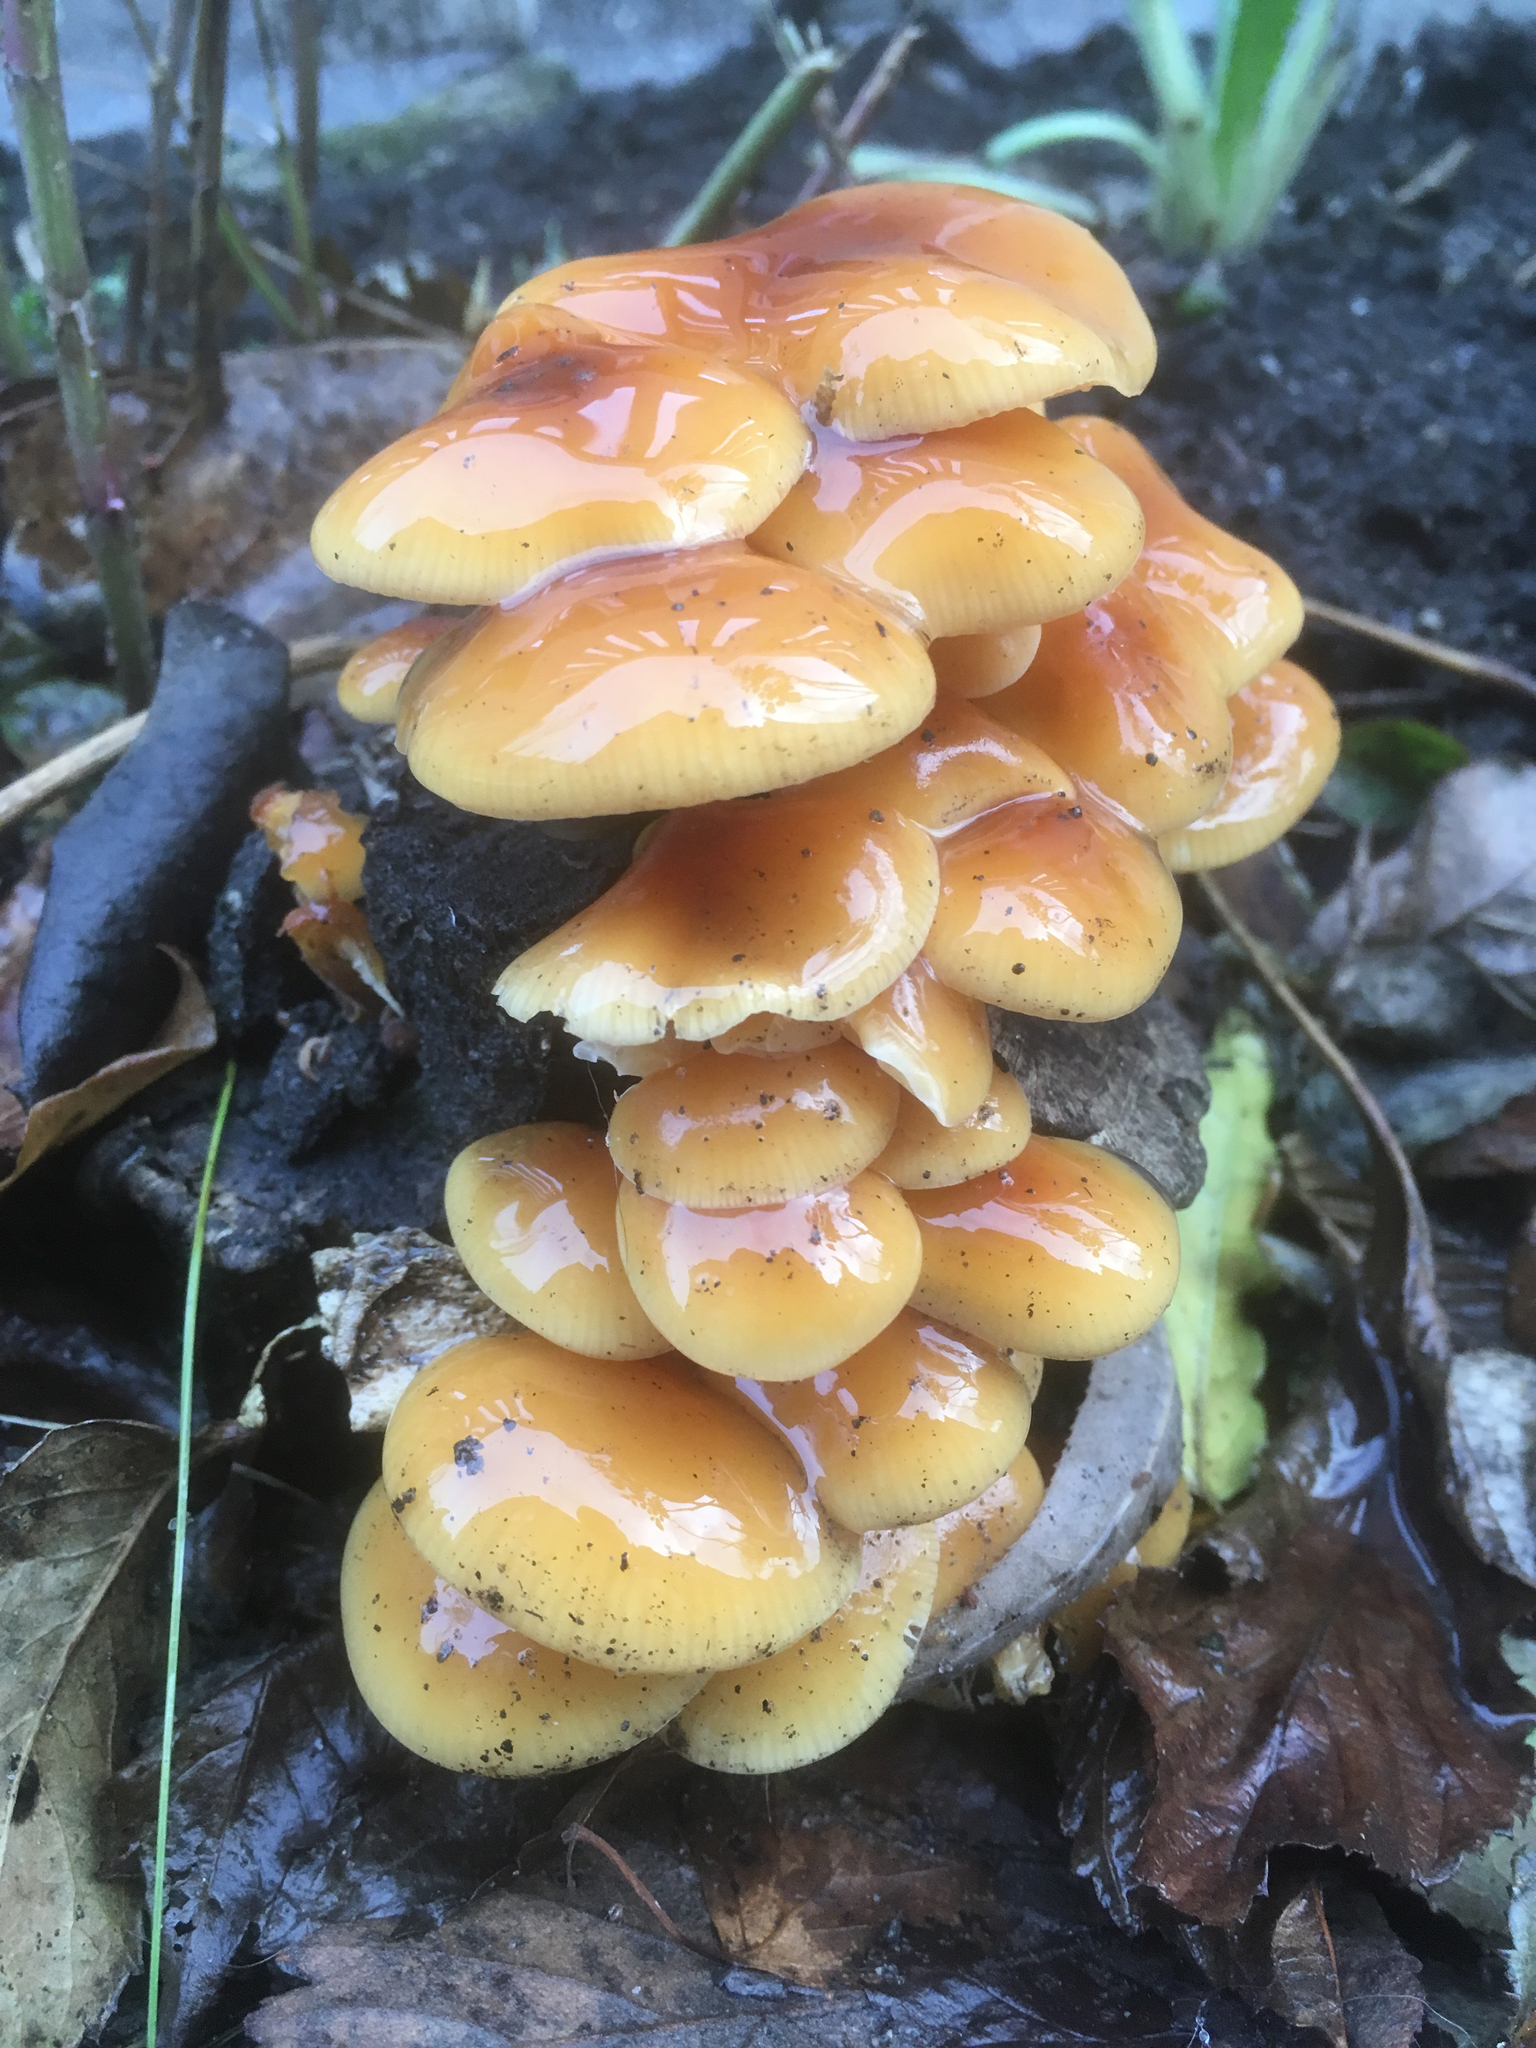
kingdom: Fungi
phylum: Basidiomycota
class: Agaricomycetes
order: Agaricales
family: Physalacriaceae
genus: Flammulina
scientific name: Flammulina
